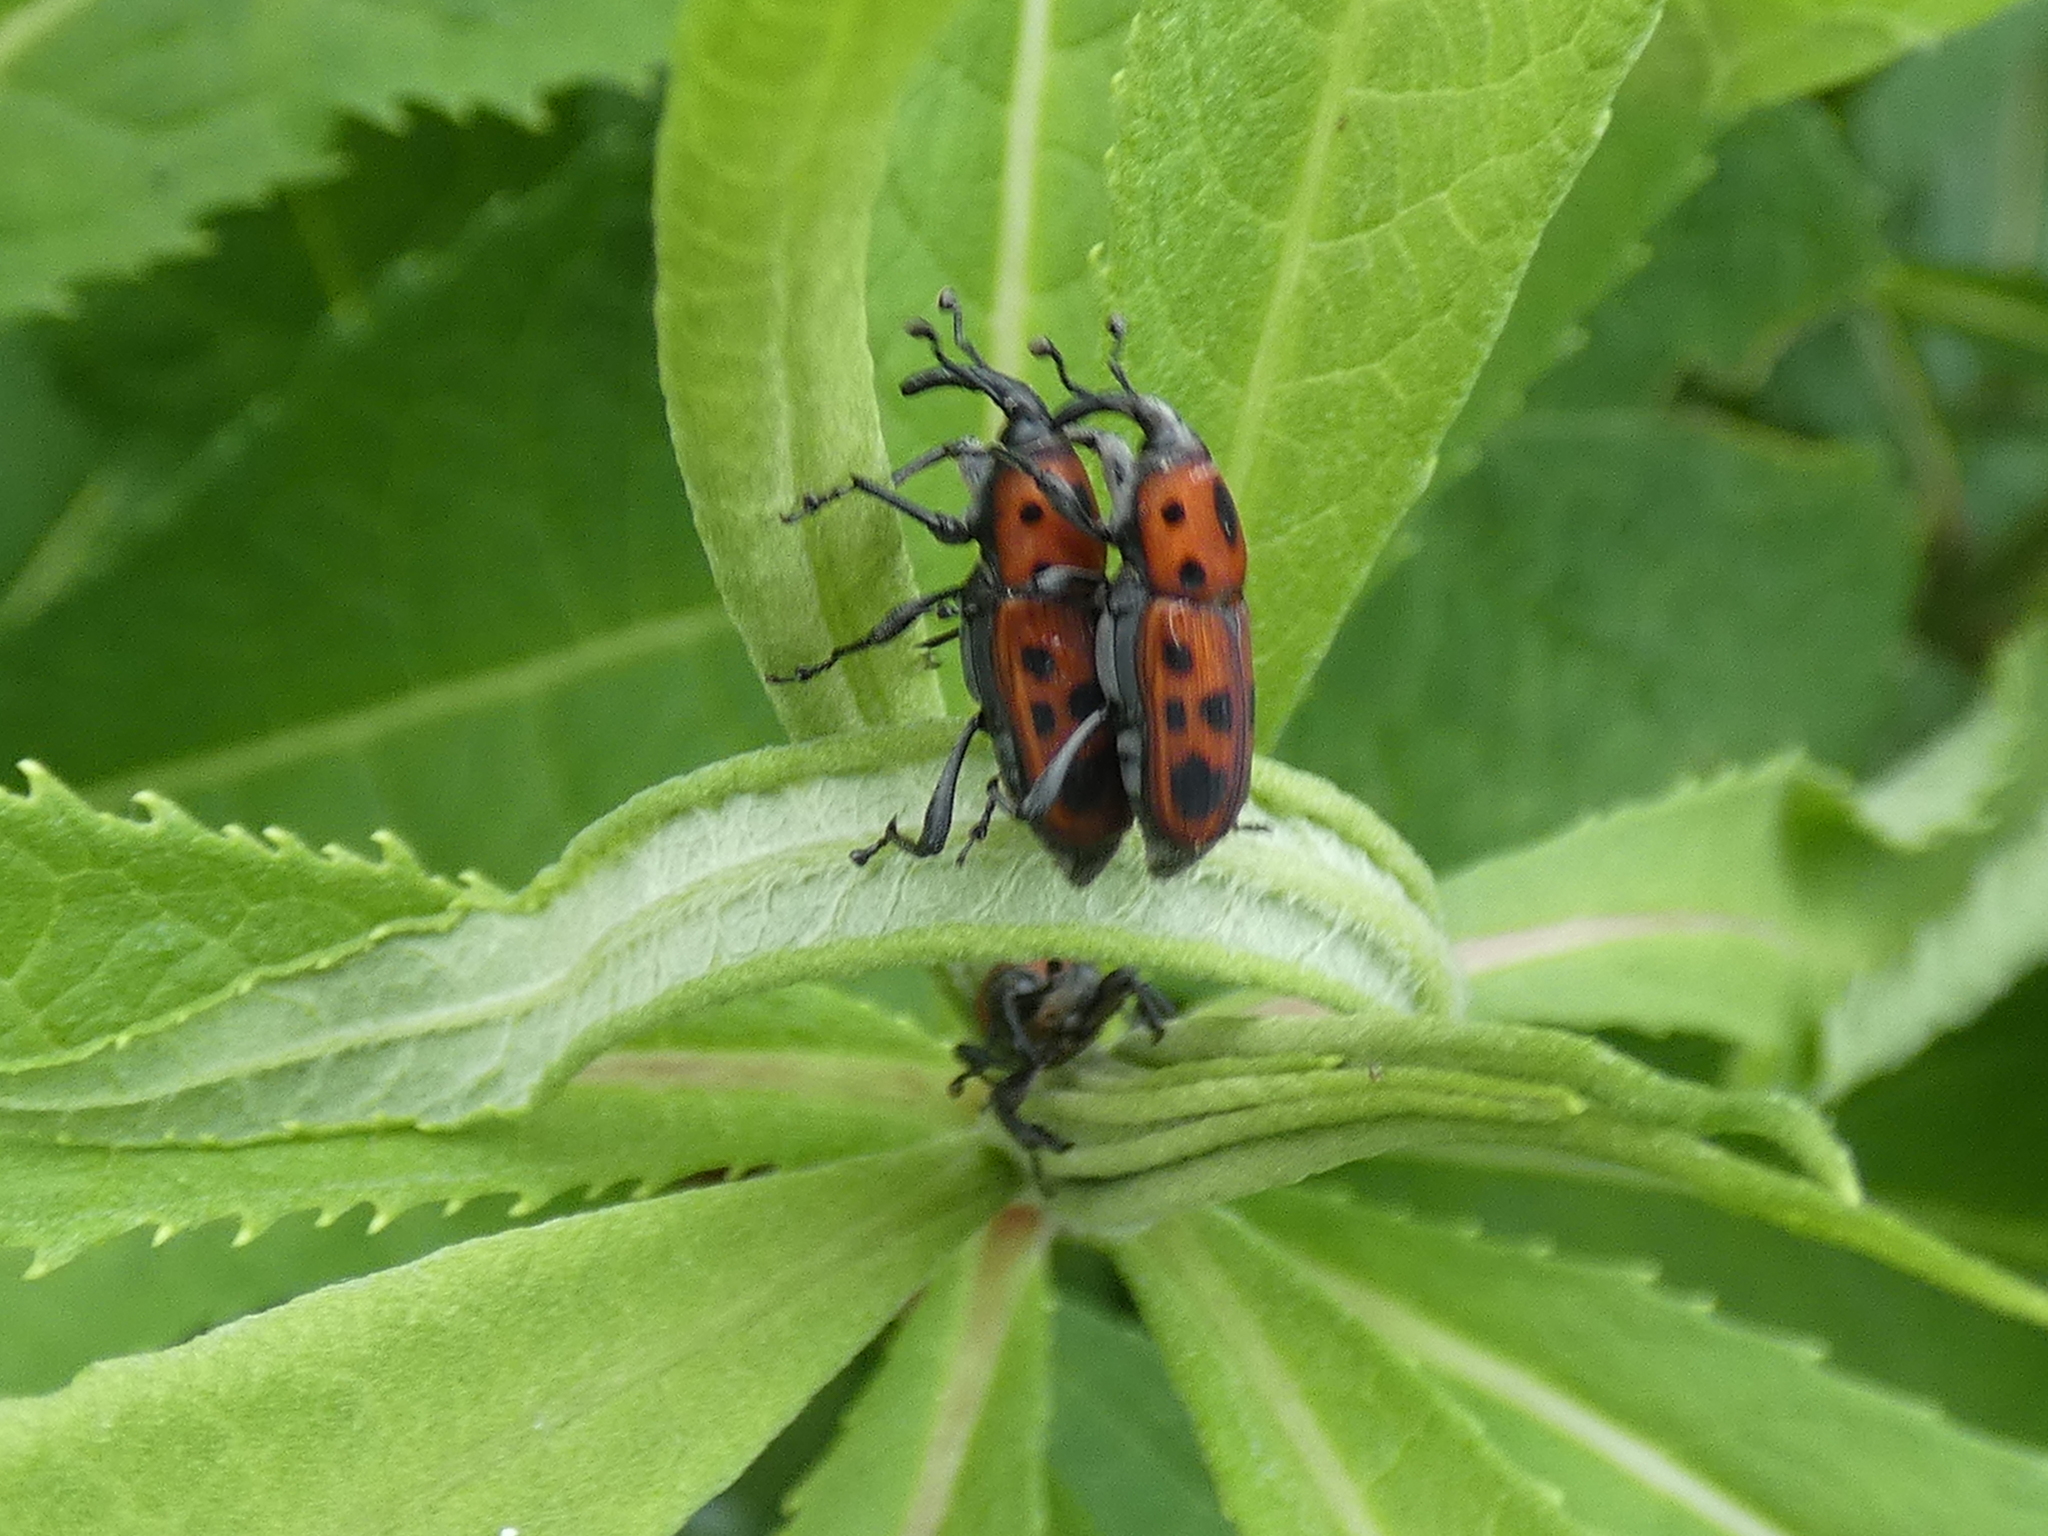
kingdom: Animalia
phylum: Arthropoda
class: Insecta
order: Coleoptera
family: Dryophthoridae
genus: Rhodobaenus
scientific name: Rhodobaenus tredecimpunctatus
